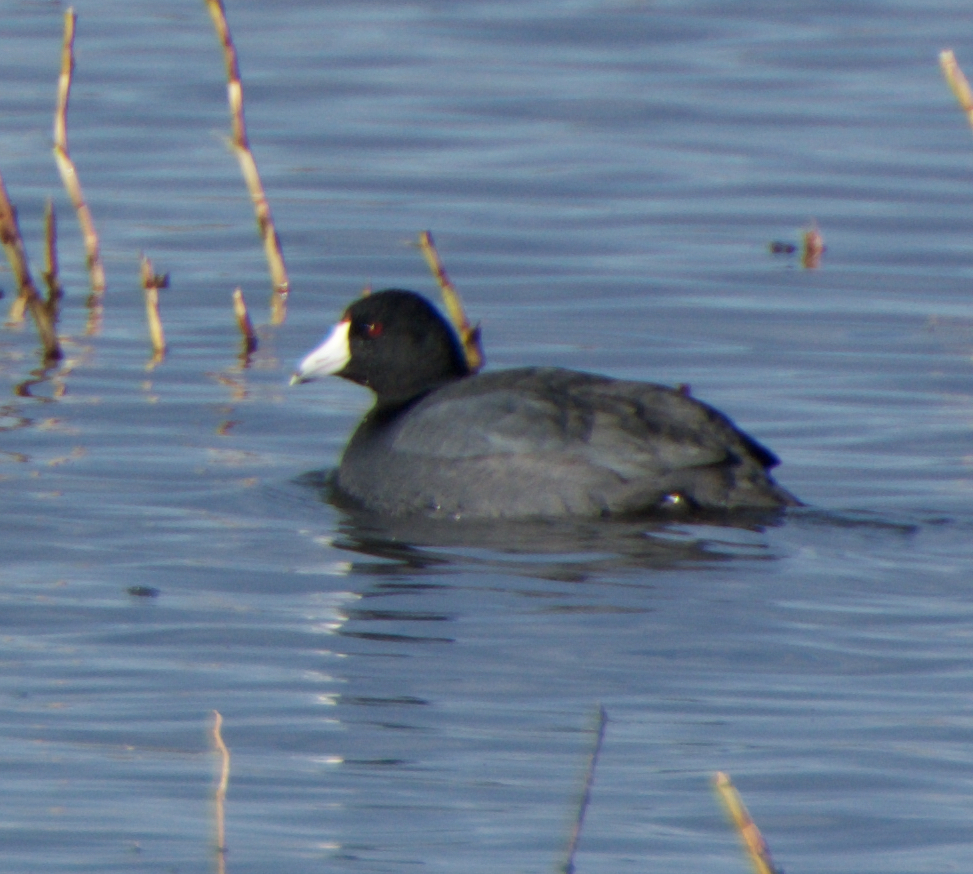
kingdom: Animalia
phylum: Chordata
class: Aves
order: Gruiformes
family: Rallidae
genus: Fulica
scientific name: Fulica americana
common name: American coot
